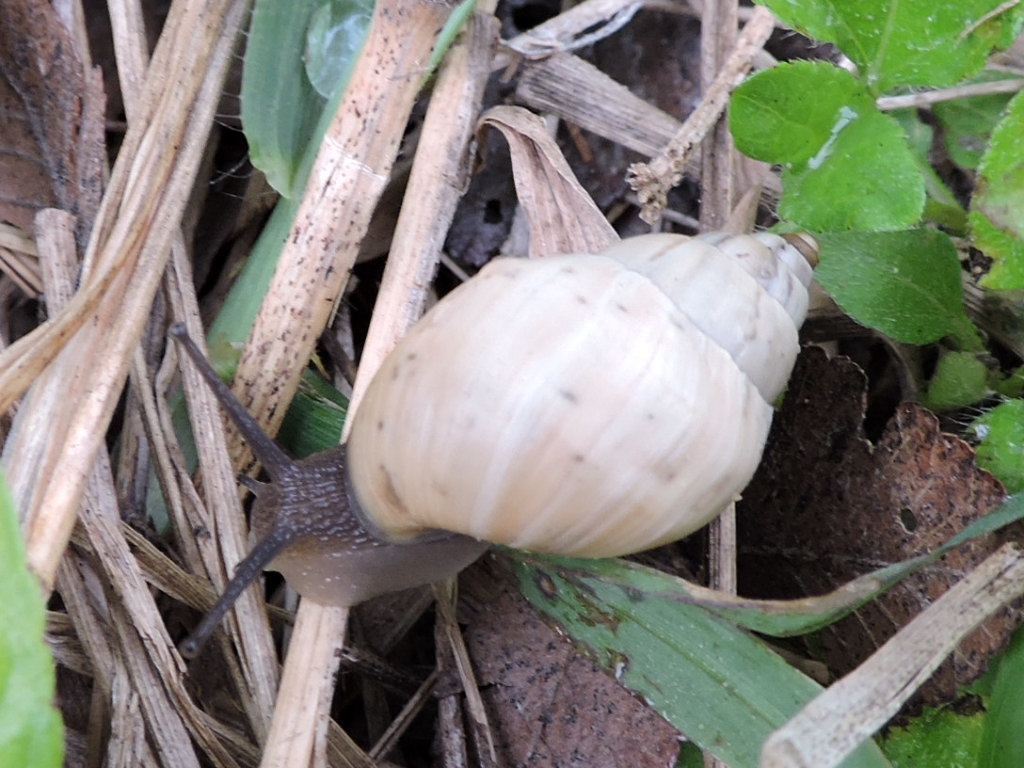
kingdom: Animalia
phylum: Mollusca
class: Gastropoda
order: Stylommatophora
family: Bulimulidae
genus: Rabdotus
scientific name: Rabdotus mooreanus
